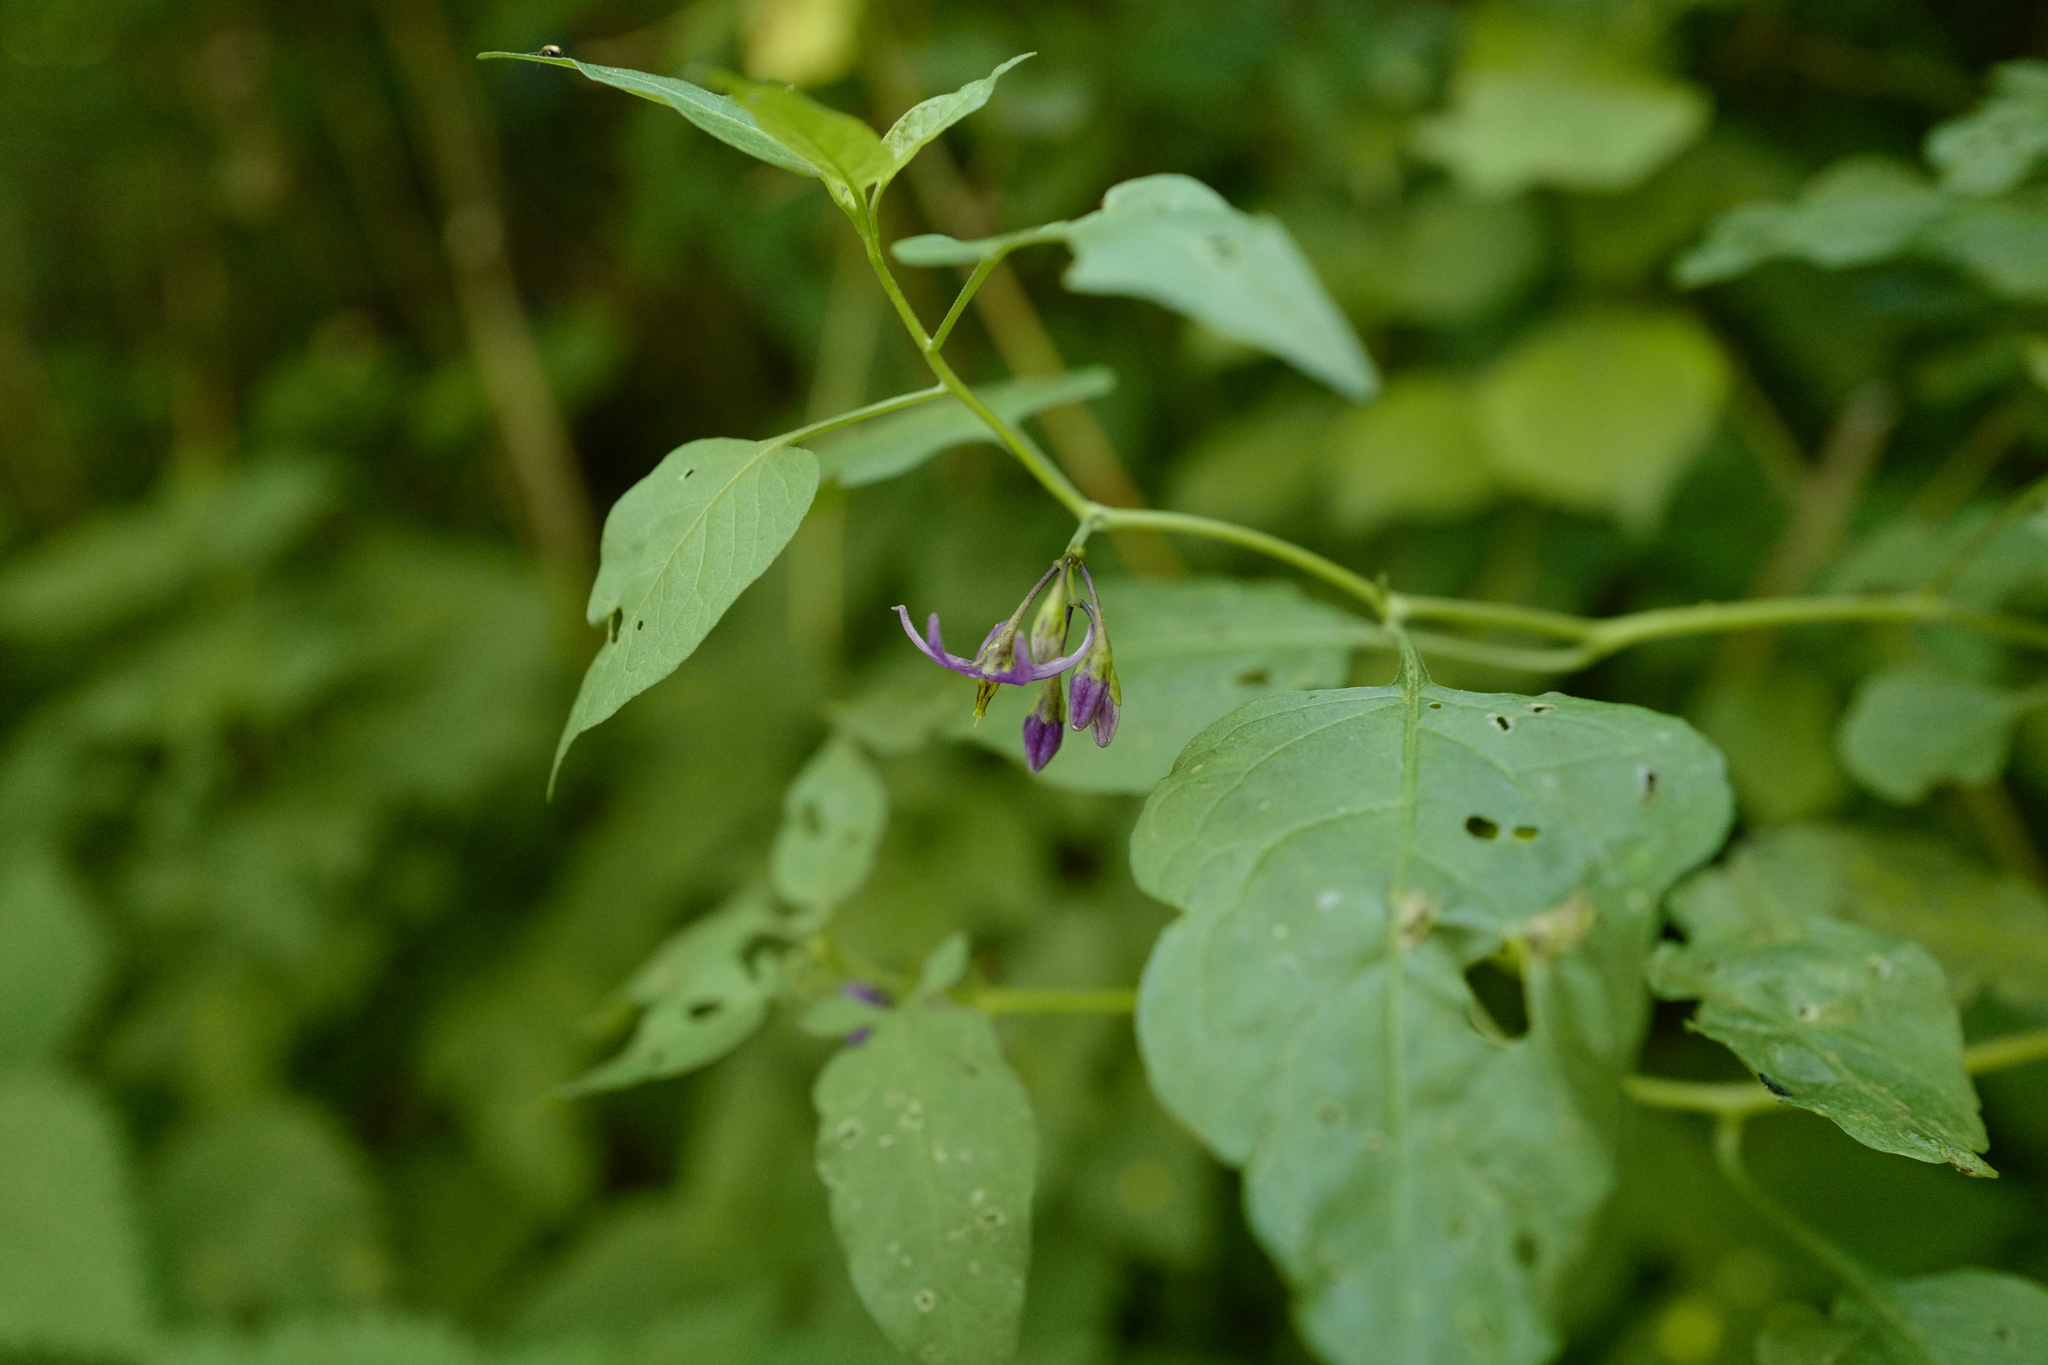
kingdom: Plantae
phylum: Tracheophyta
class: Magnoliopsida
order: Solanales
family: Solanaceae
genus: Solanum
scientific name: Solanum dulcamara
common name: Climbing nightshade
